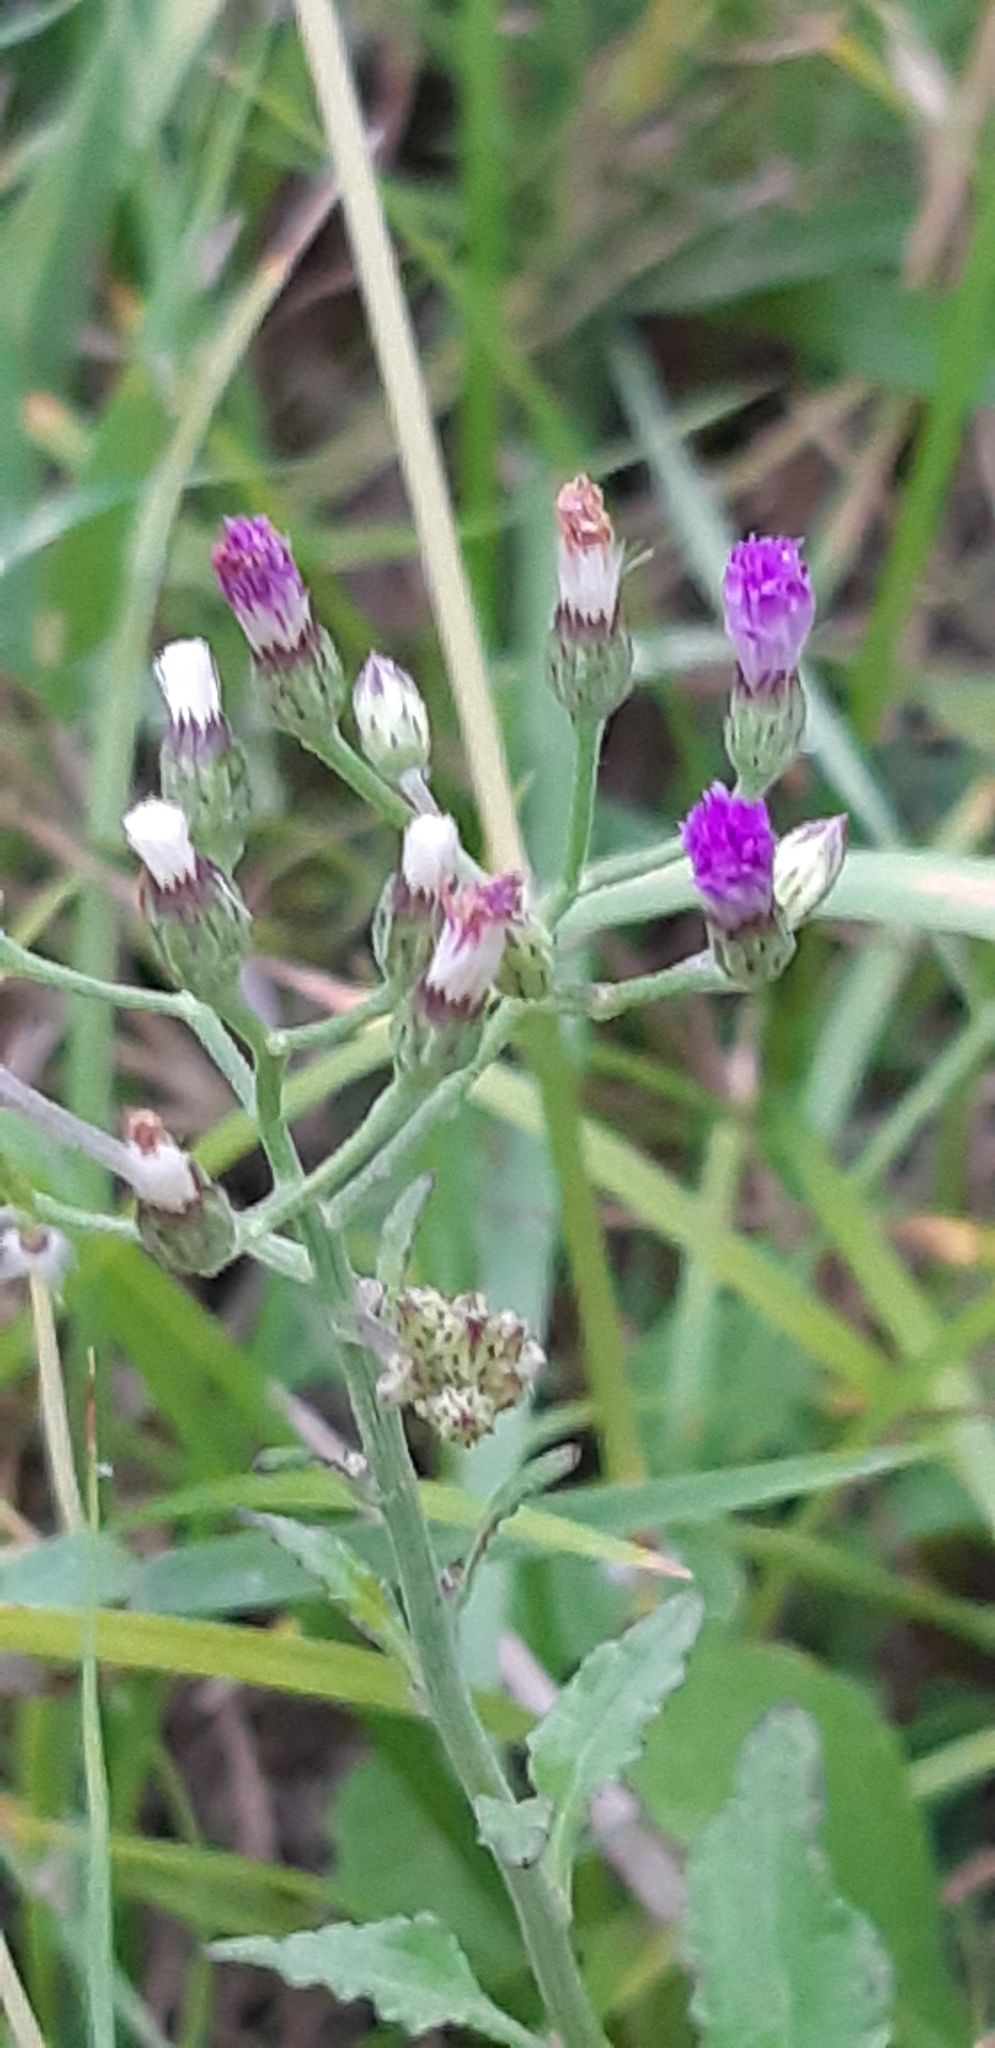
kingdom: Plantae
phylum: Tracheophyta
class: Magnoliopsida
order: Asterales
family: Asteraceae
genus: Cyanthillium
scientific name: Cyanthillium cinereum
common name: Little ironweed
